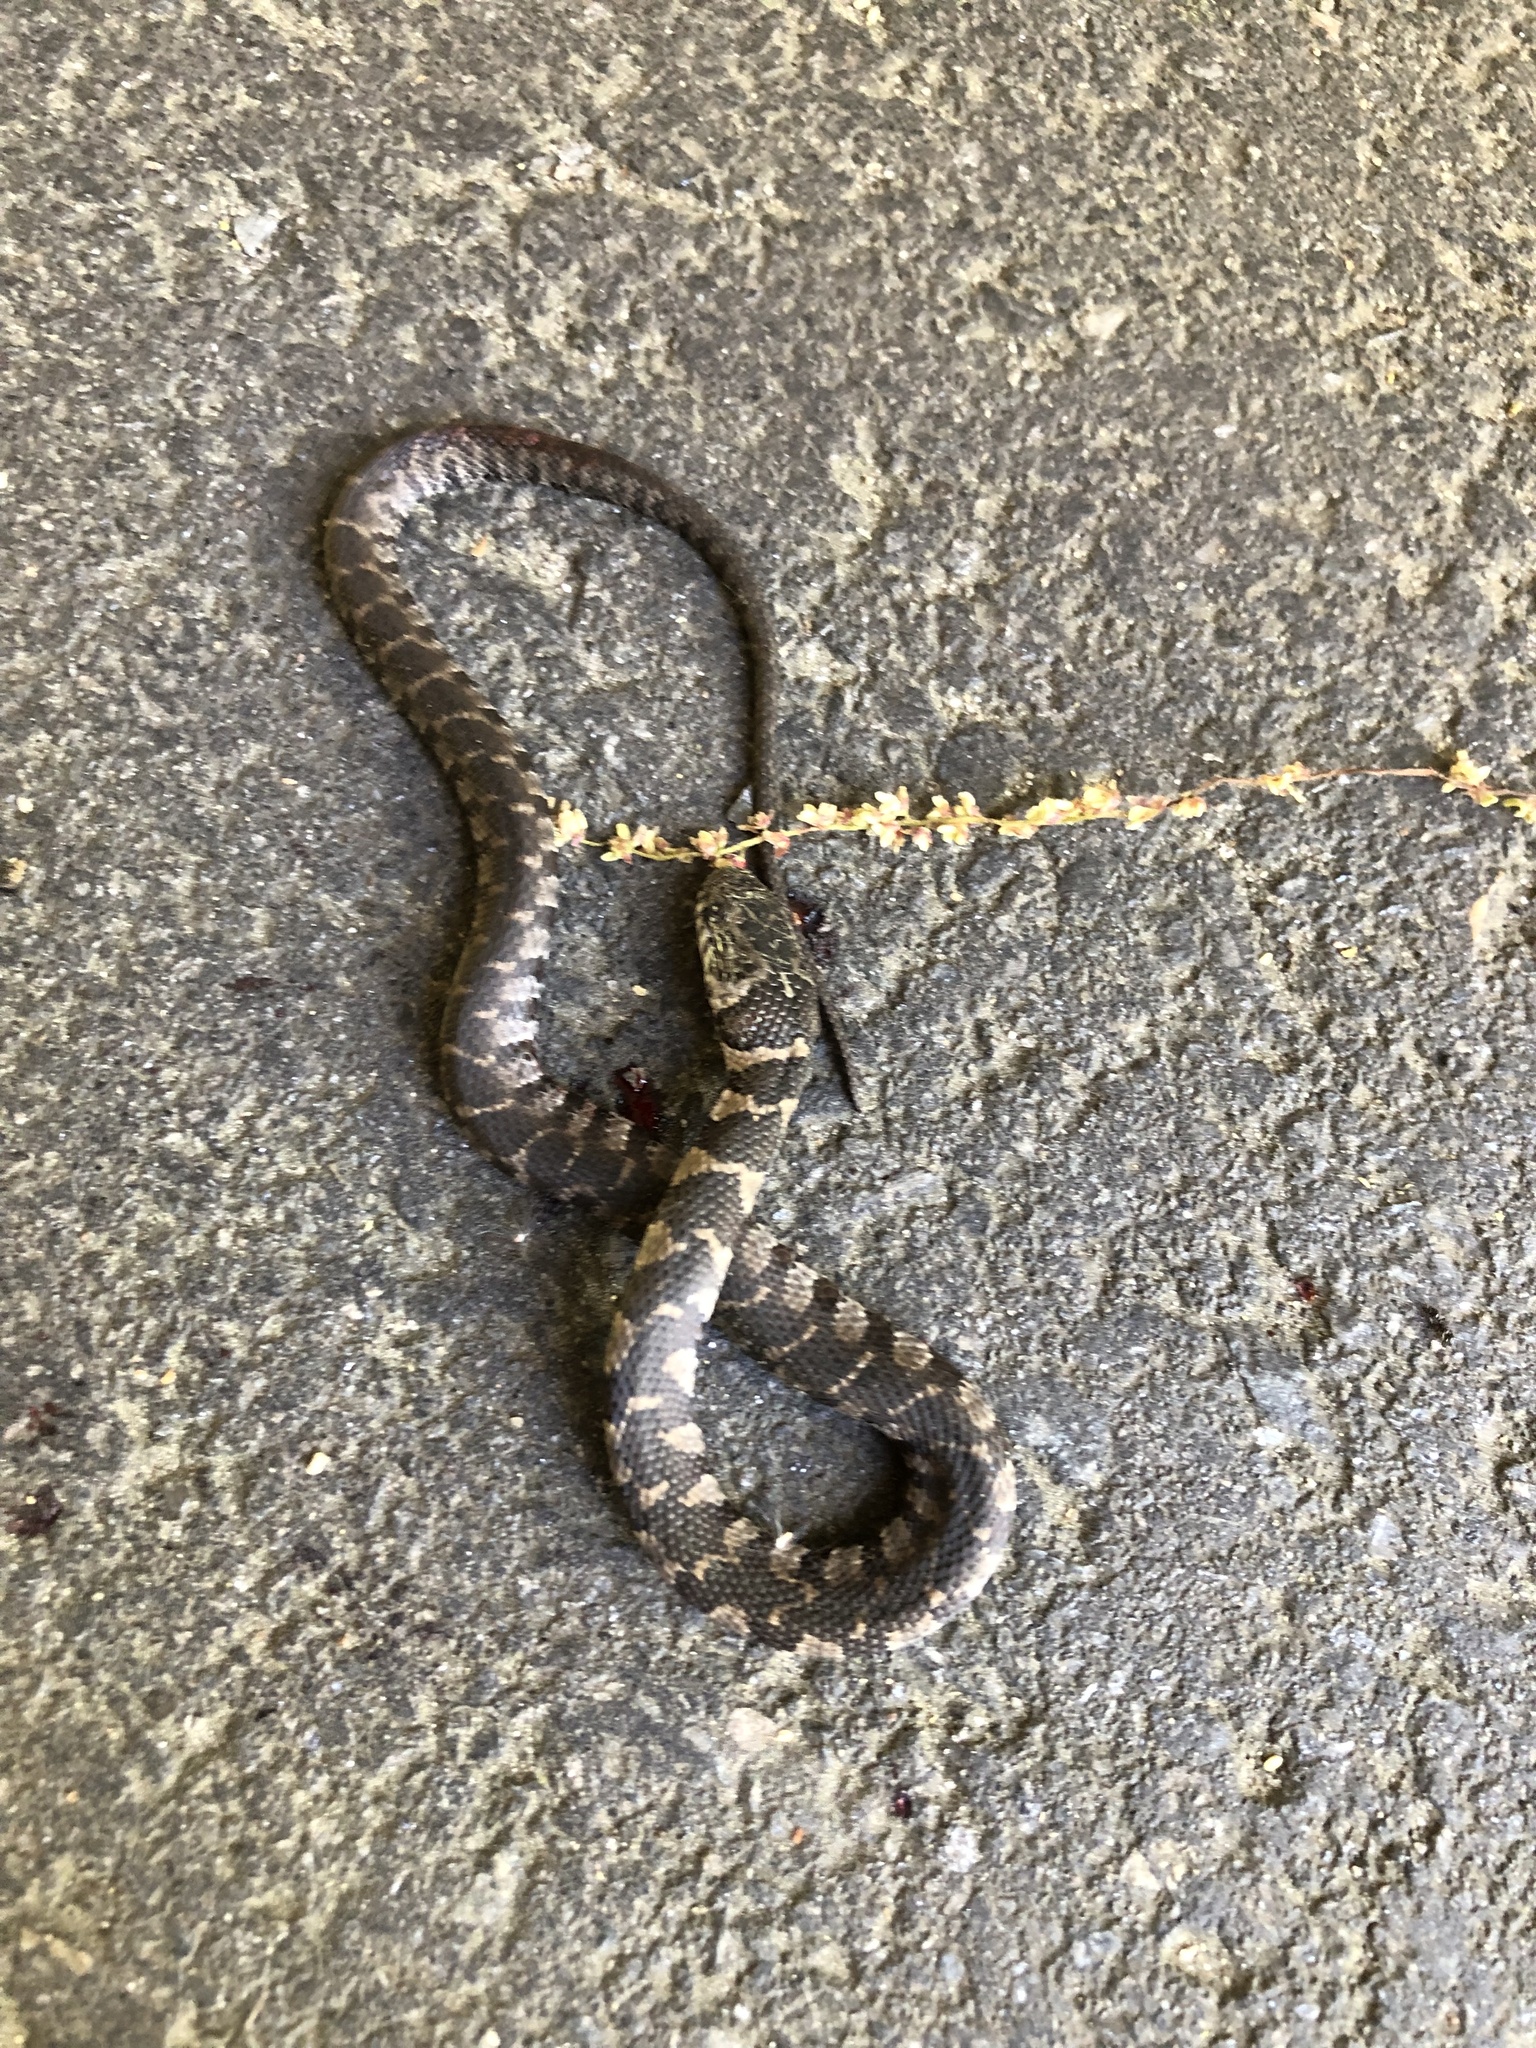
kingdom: Animalia
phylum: Chordata
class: Squamata
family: Colubridae
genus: Nerodia
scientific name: Nerodia sipedon
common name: Northern water snake
